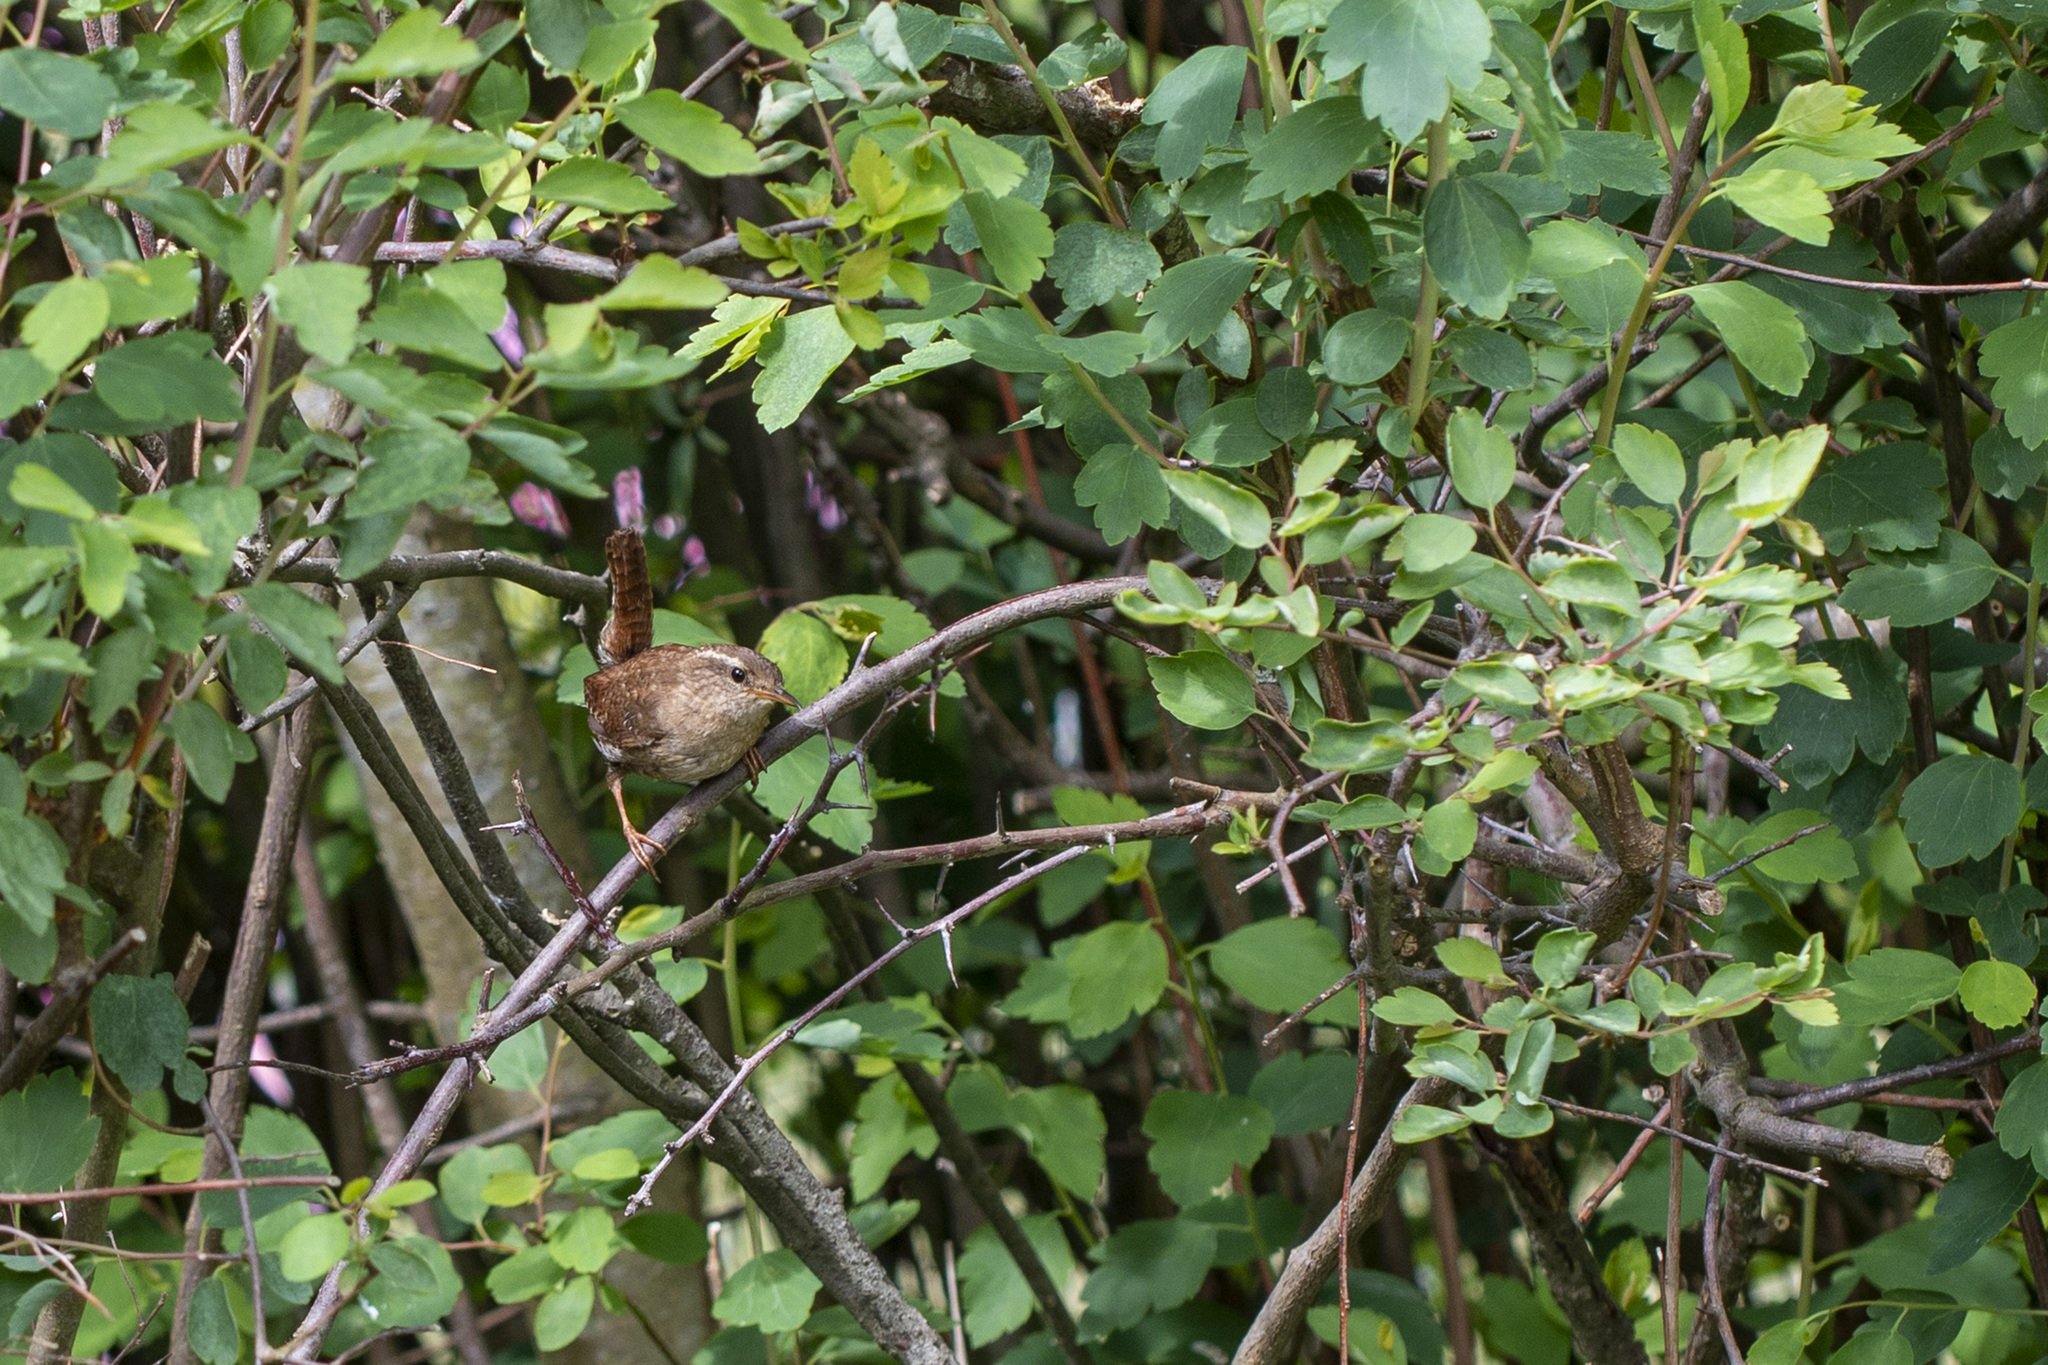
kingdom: Animalia
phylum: Chordata
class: Aves
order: Passeriformes
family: Troglodytidae
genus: Troglodytes
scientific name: Troglodytes troglodytes
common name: Eurasian wren
